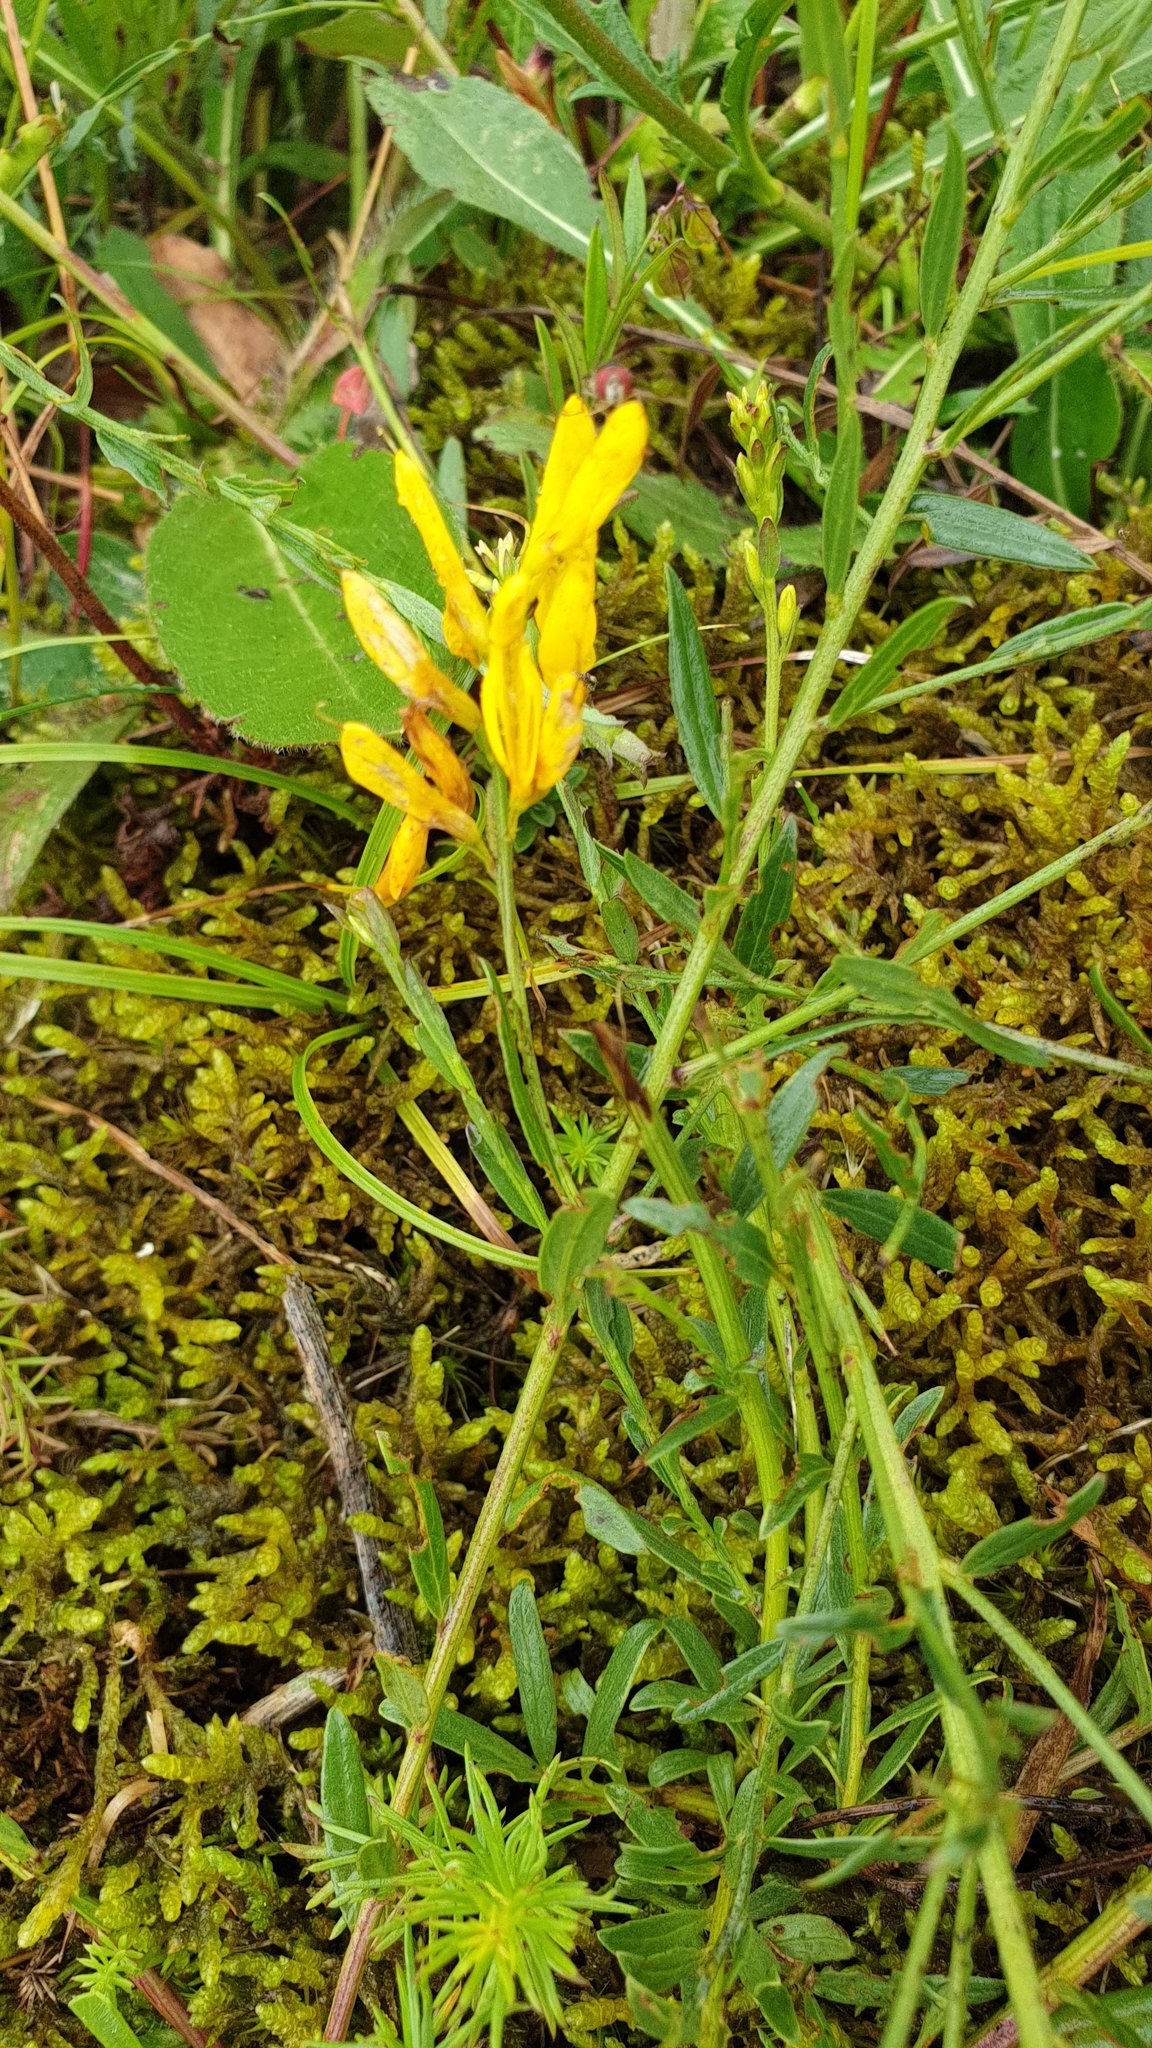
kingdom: Plantae
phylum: Tracheophyta
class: Magnoliopsida
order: Fabales
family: Fabaceae
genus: Genista
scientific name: Genista tinctoria
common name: Dyer's greenweed
